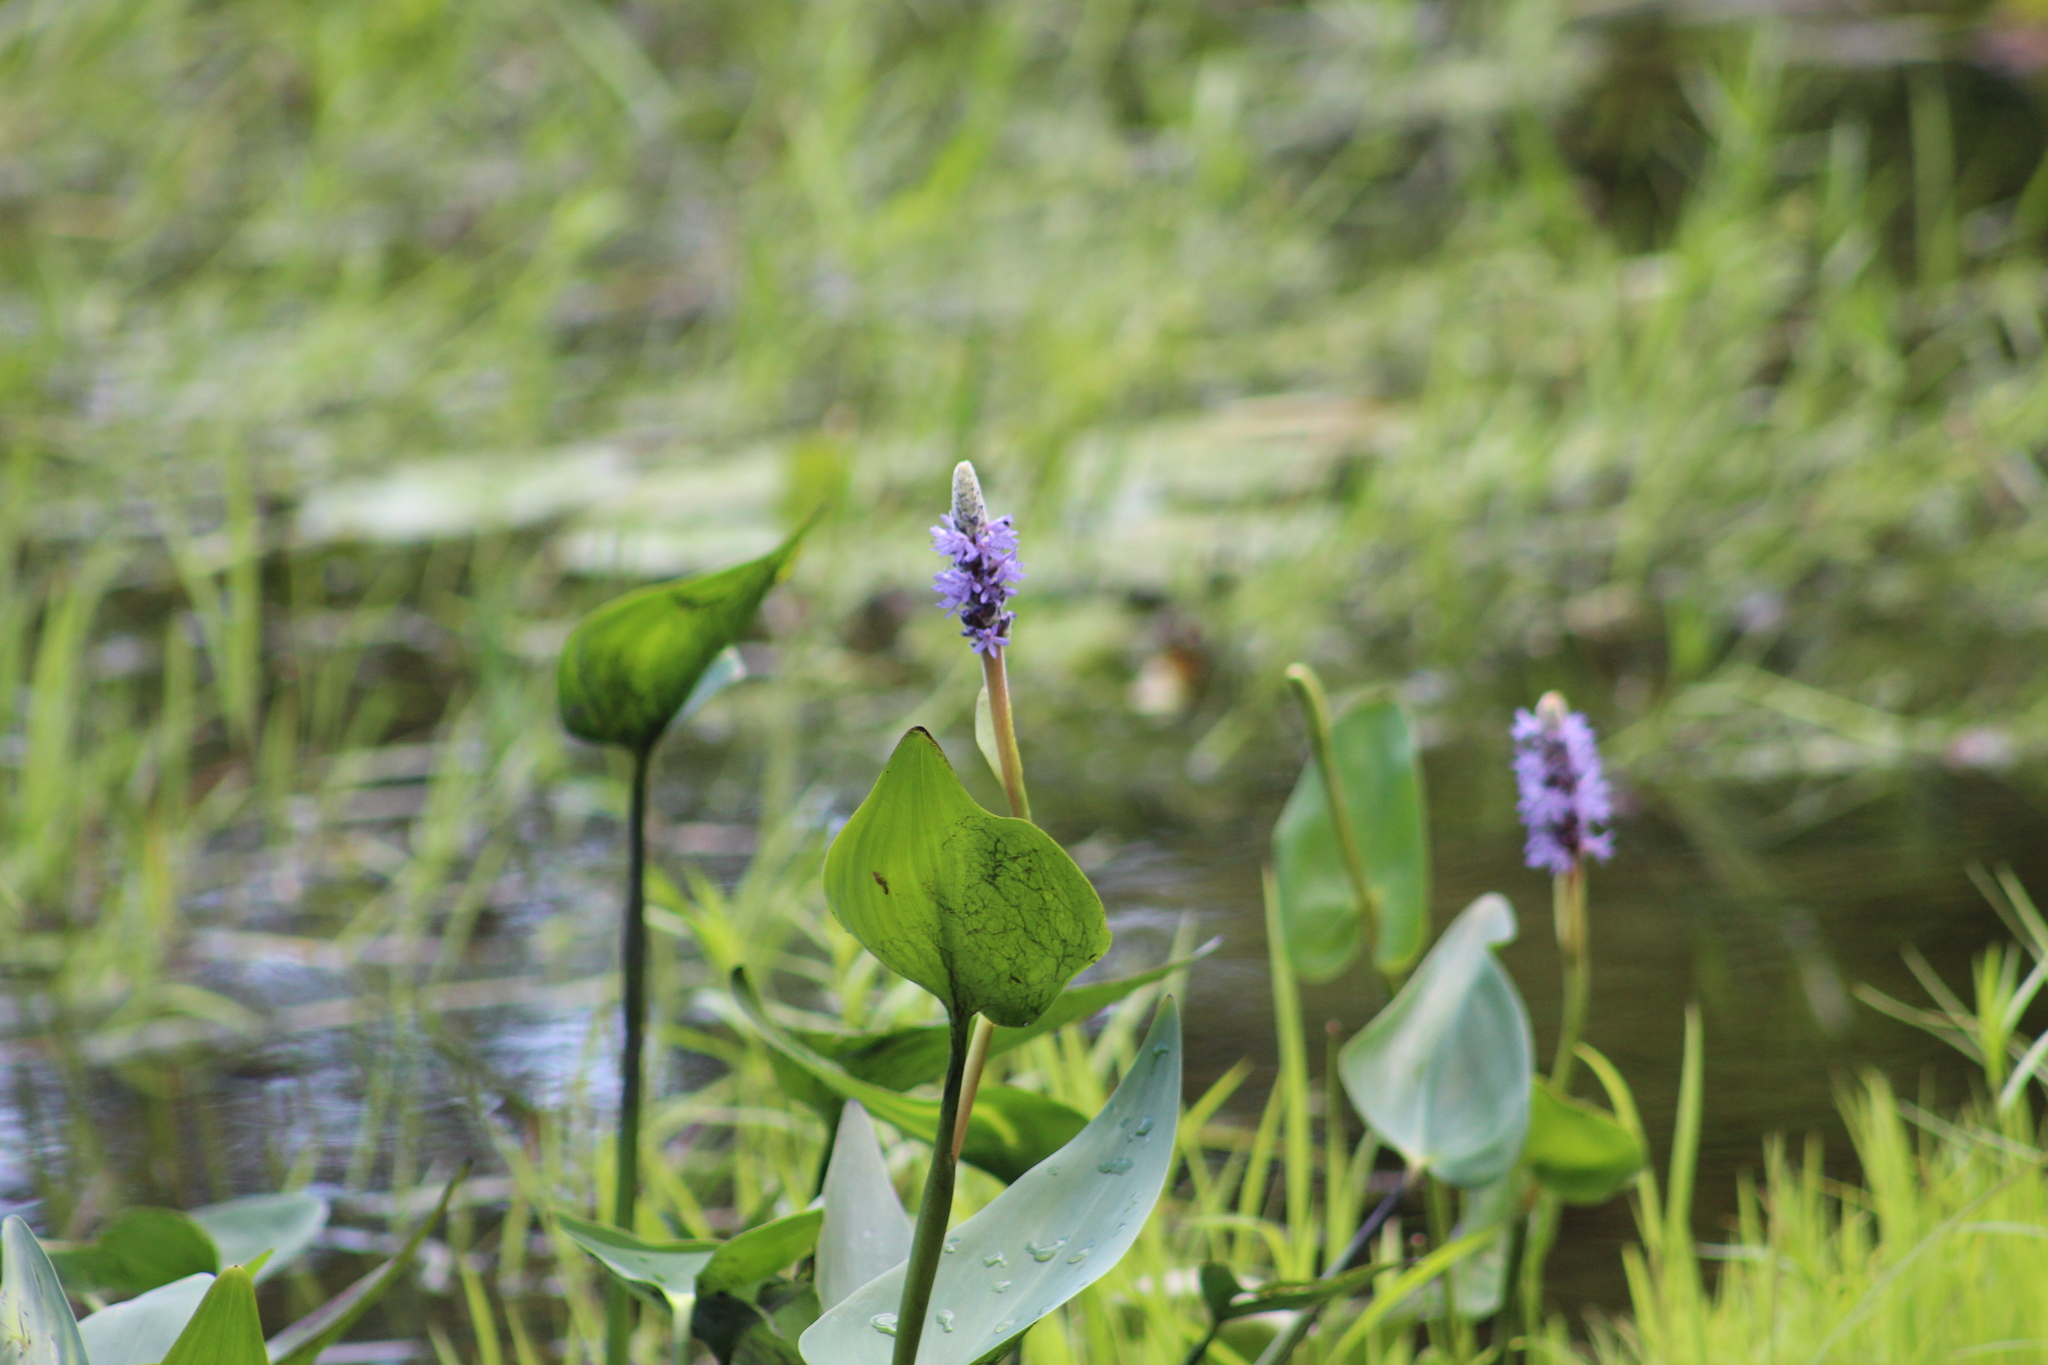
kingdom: Plantae
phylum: Tracheophyta
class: Liliopsida
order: Commelinales
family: Pontederiaceae
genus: Pontederia
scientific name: Pontederia cordata
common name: Pickerelweed
